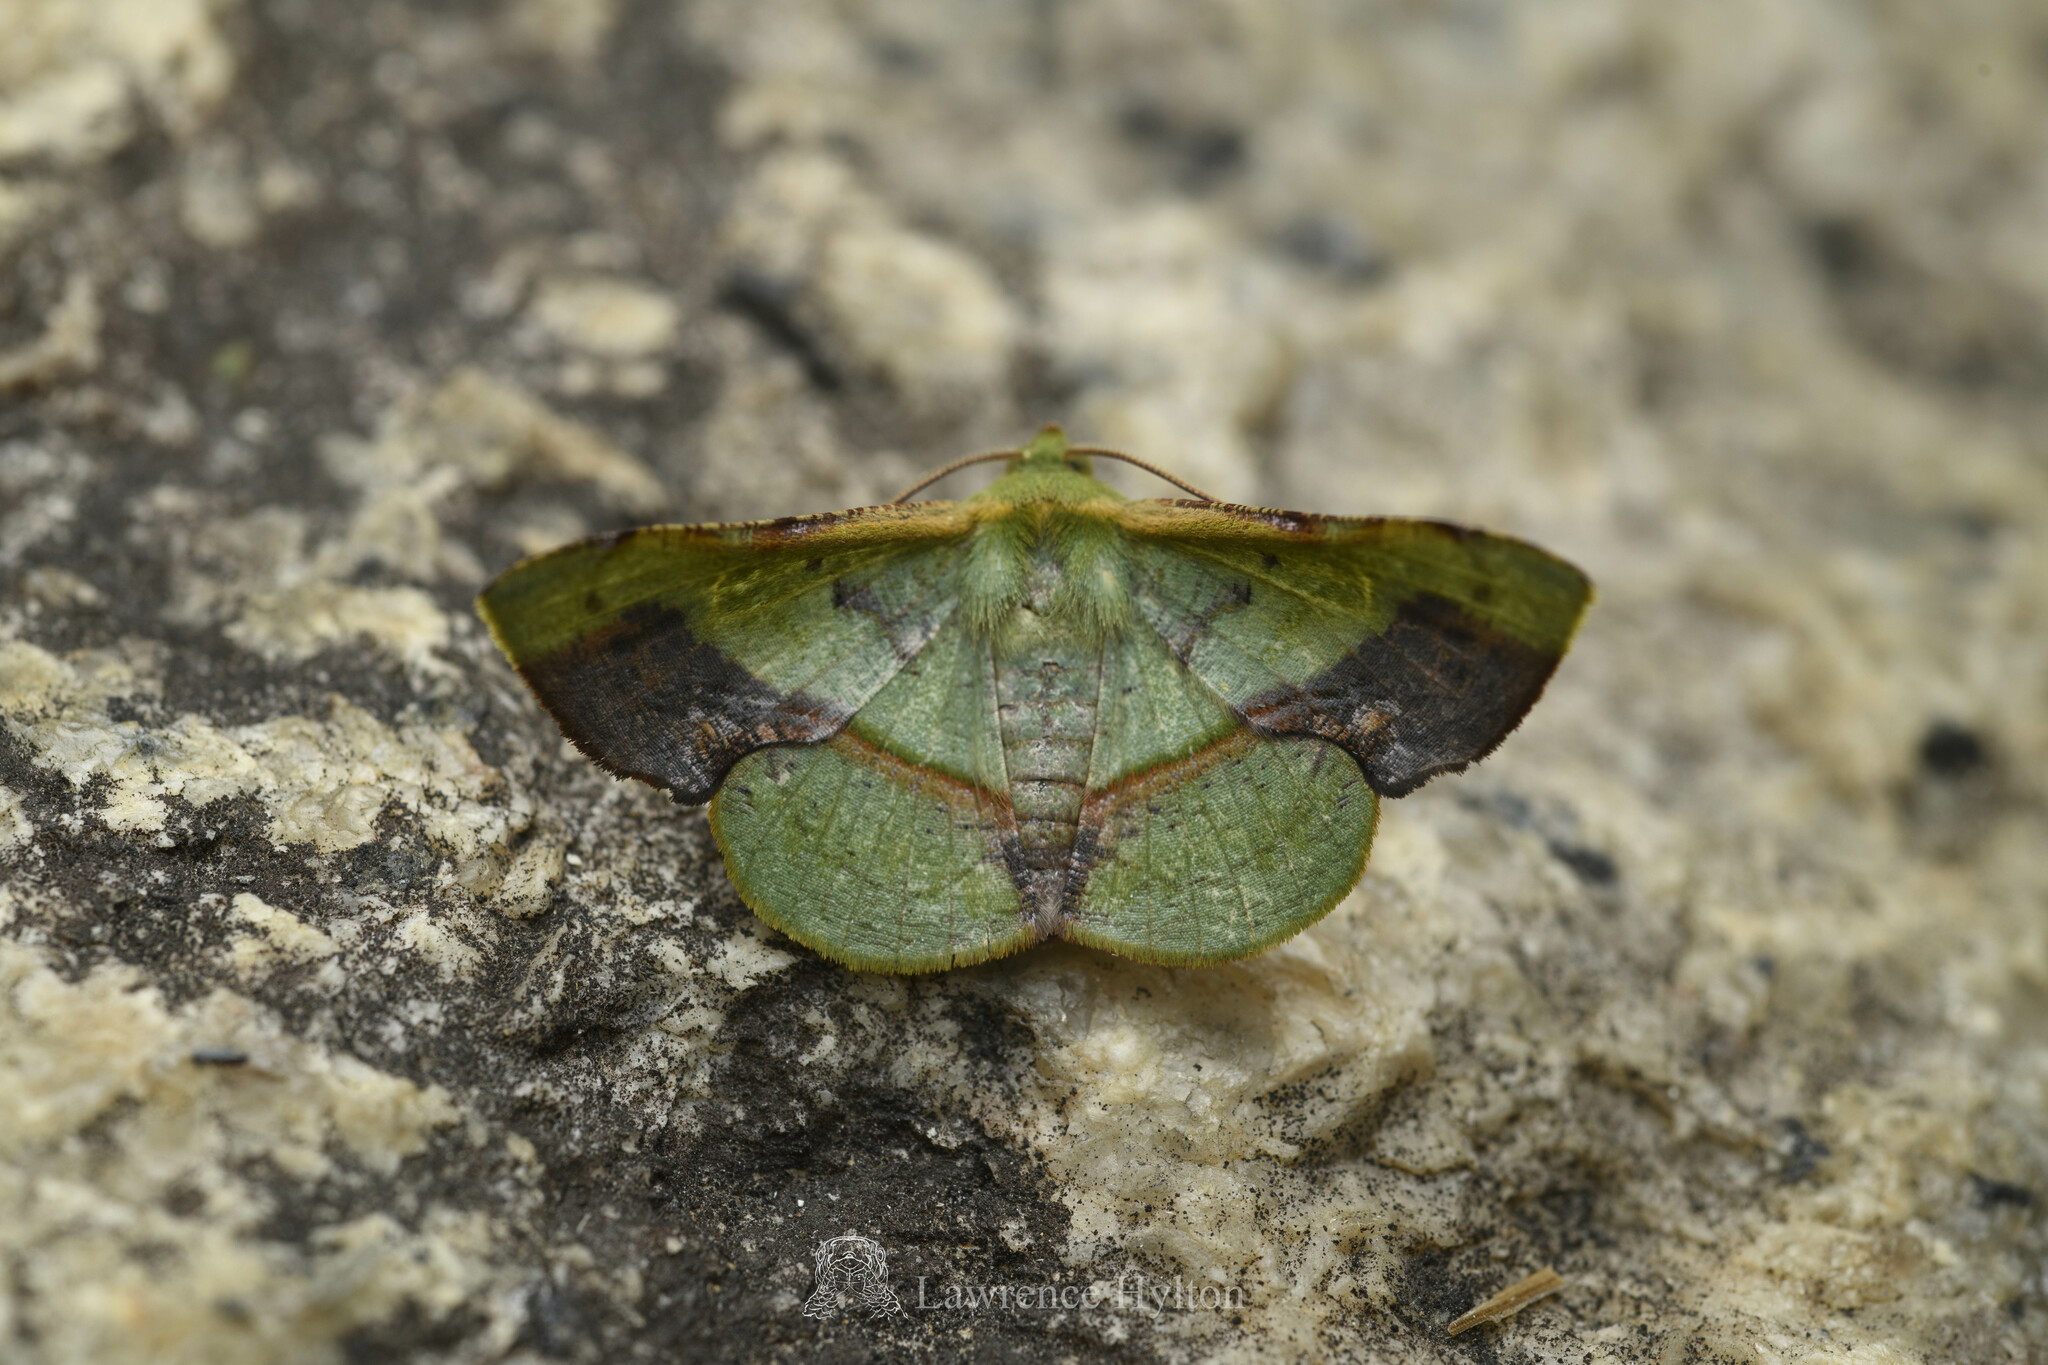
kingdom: Animalia
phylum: Arthropoda
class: Insecta
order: Lepidoptera
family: Geometridae
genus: Fascellina
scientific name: Fascellina plagiata
